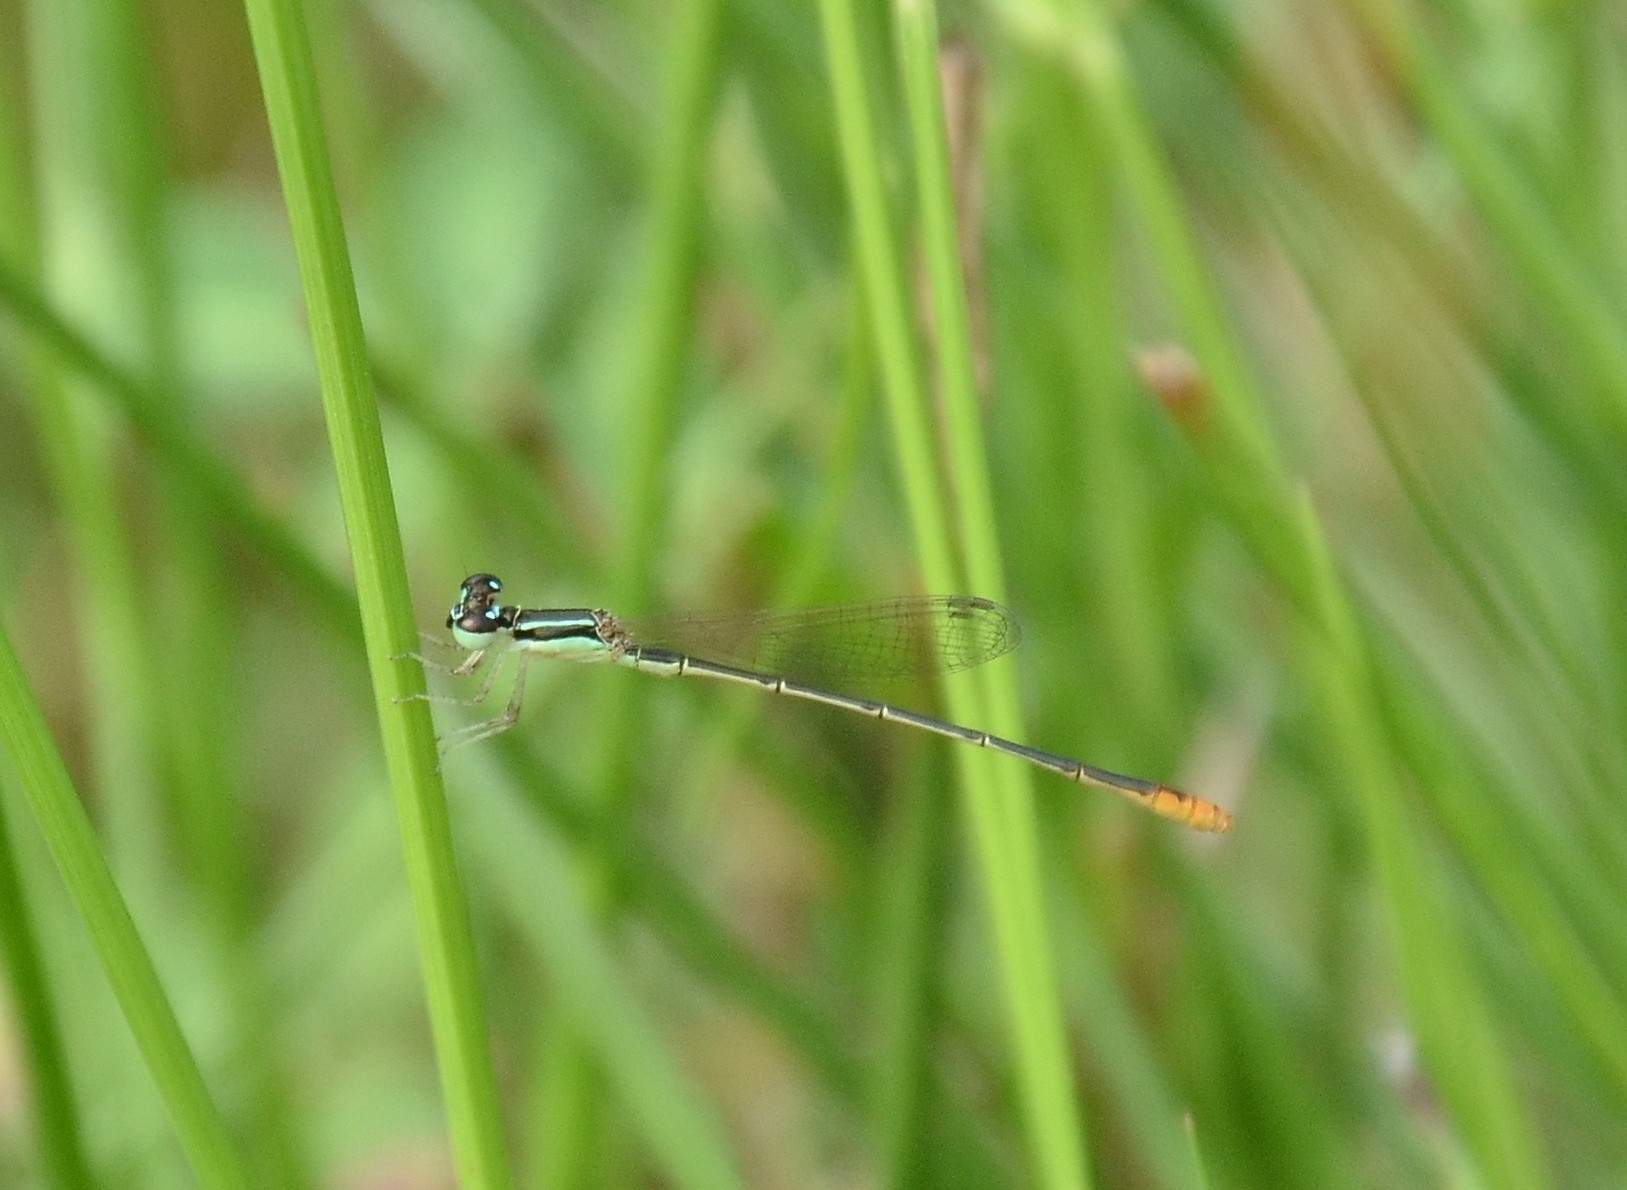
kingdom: Animalia
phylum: Arthropoda
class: Insecta
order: Odonata
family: Coenagrionidae
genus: Agriocnemis
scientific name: Agriocnemis pygmaea
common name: Pygmy wisp
